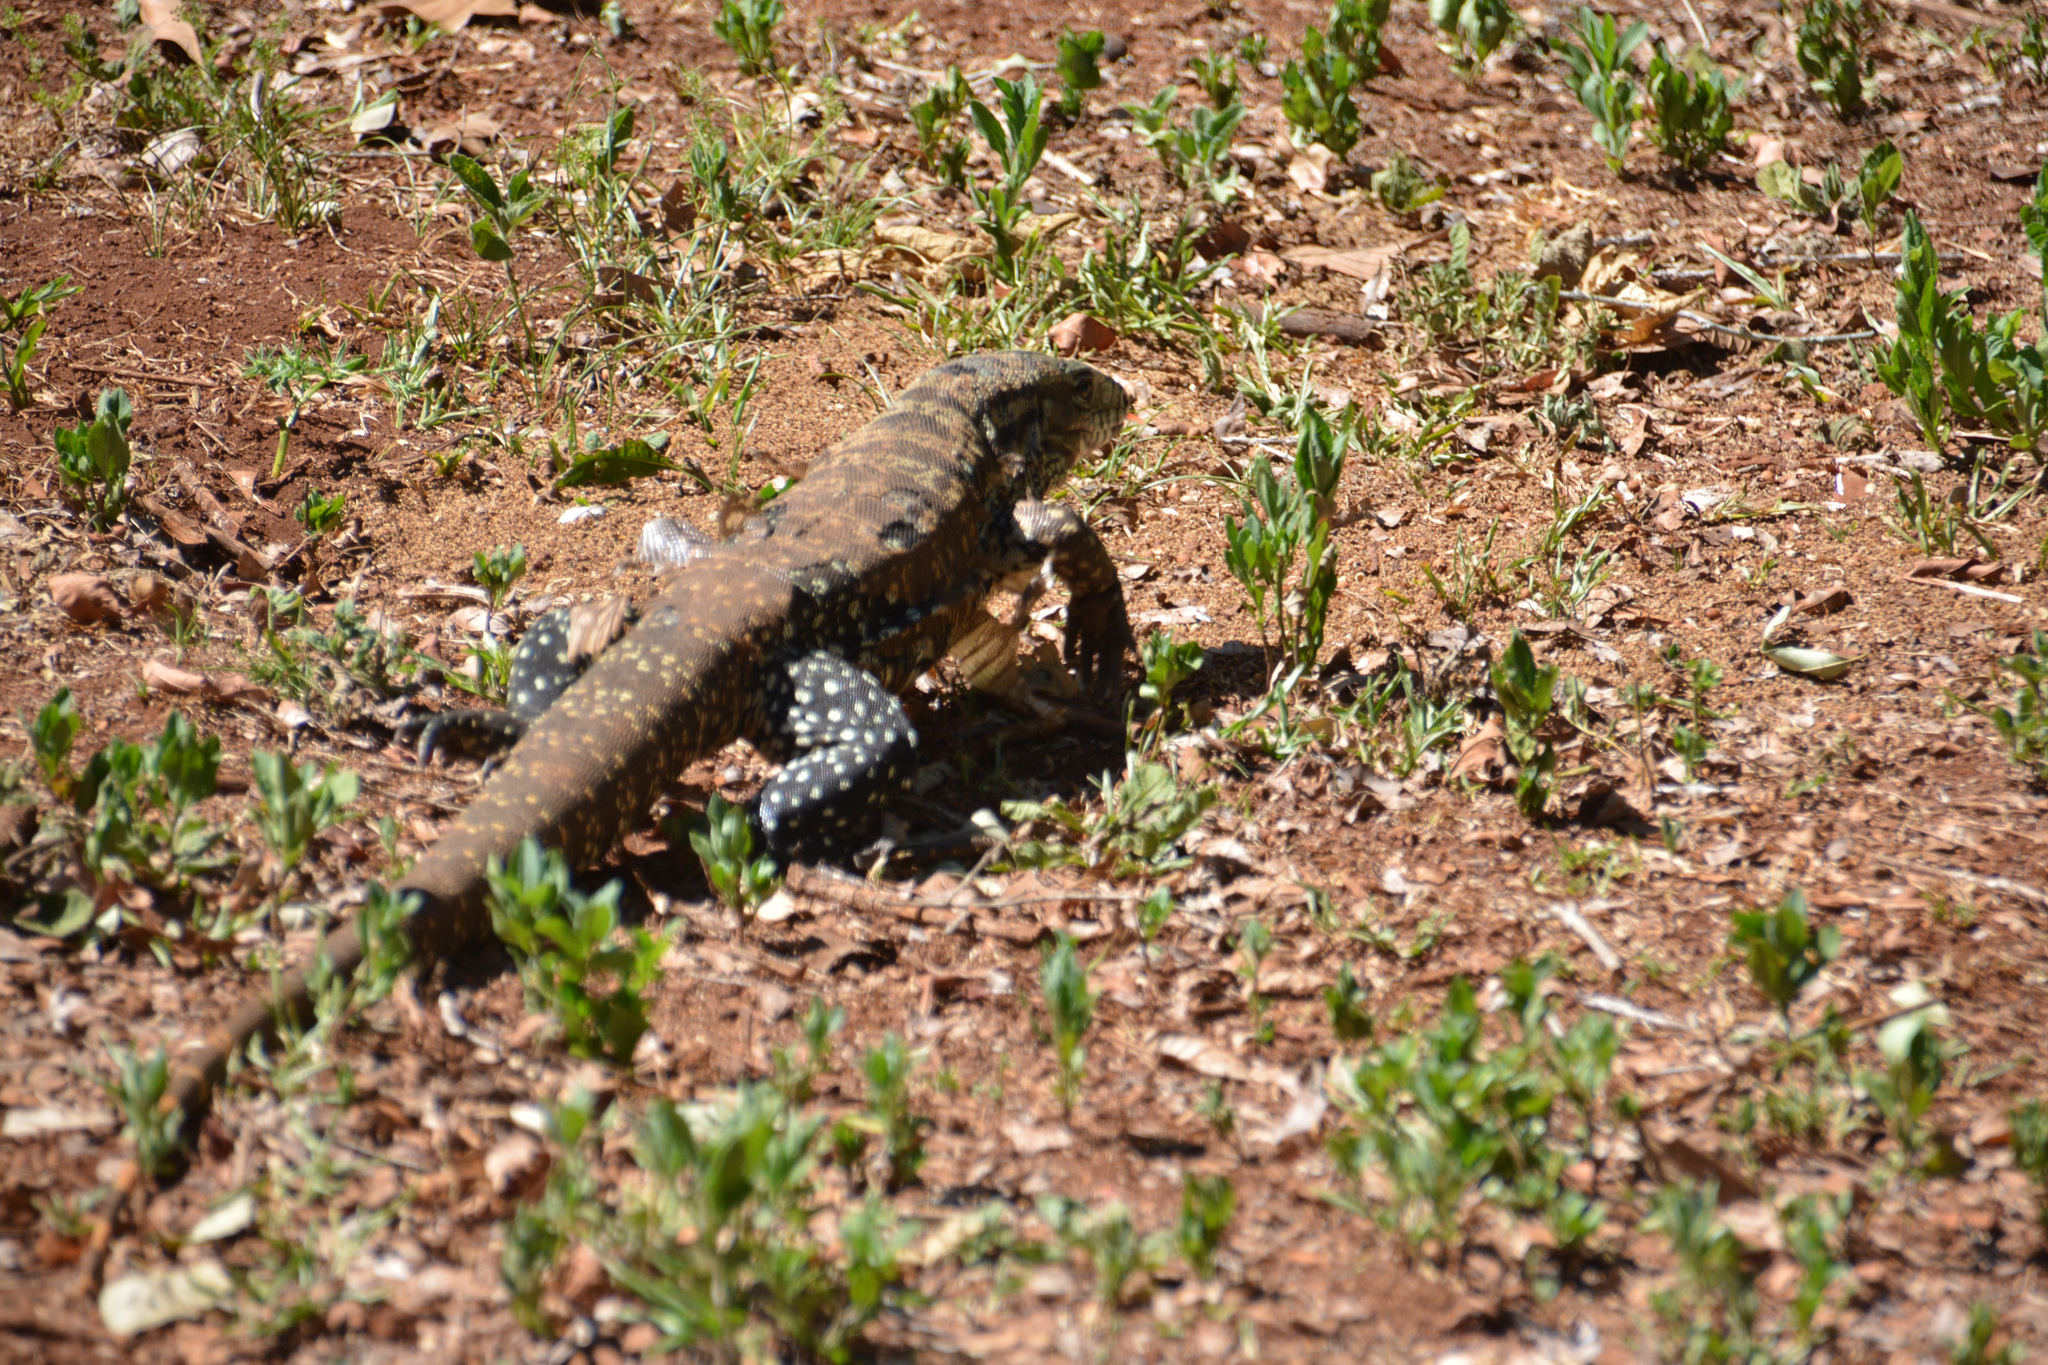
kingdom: Animalia
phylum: Chordata
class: Squamata
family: Teiidae
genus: Salvator
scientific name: Salvator merianae
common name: Argentine black and white tegu
